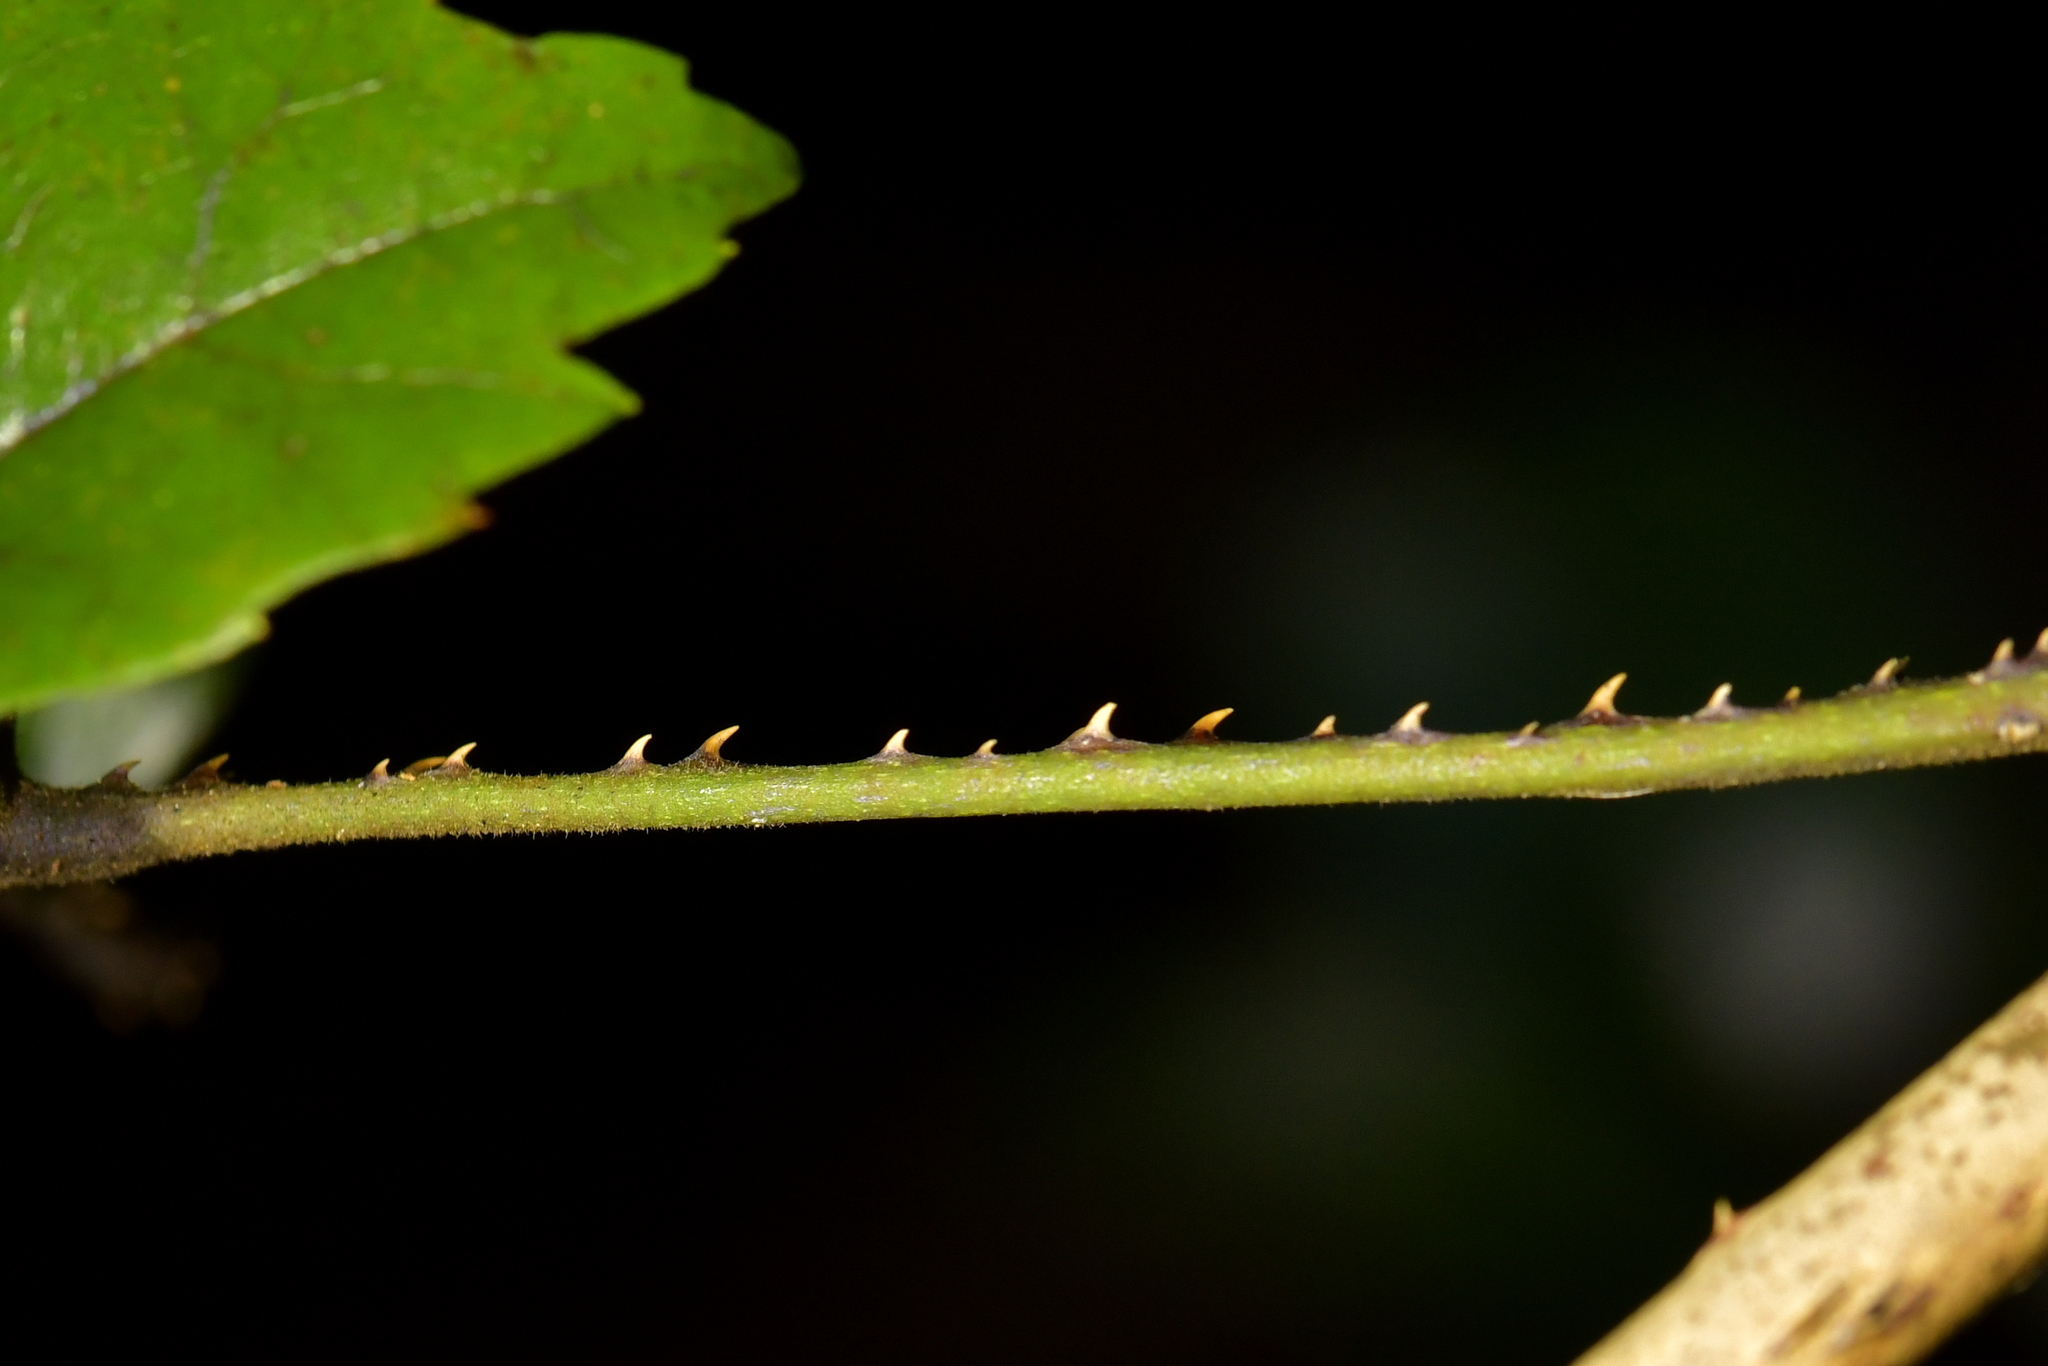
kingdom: Plantae
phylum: Tracheophyta
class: Magnoliopsida
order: Rosales
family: Rosaceae
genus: Rubus
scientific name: Rubus australis
